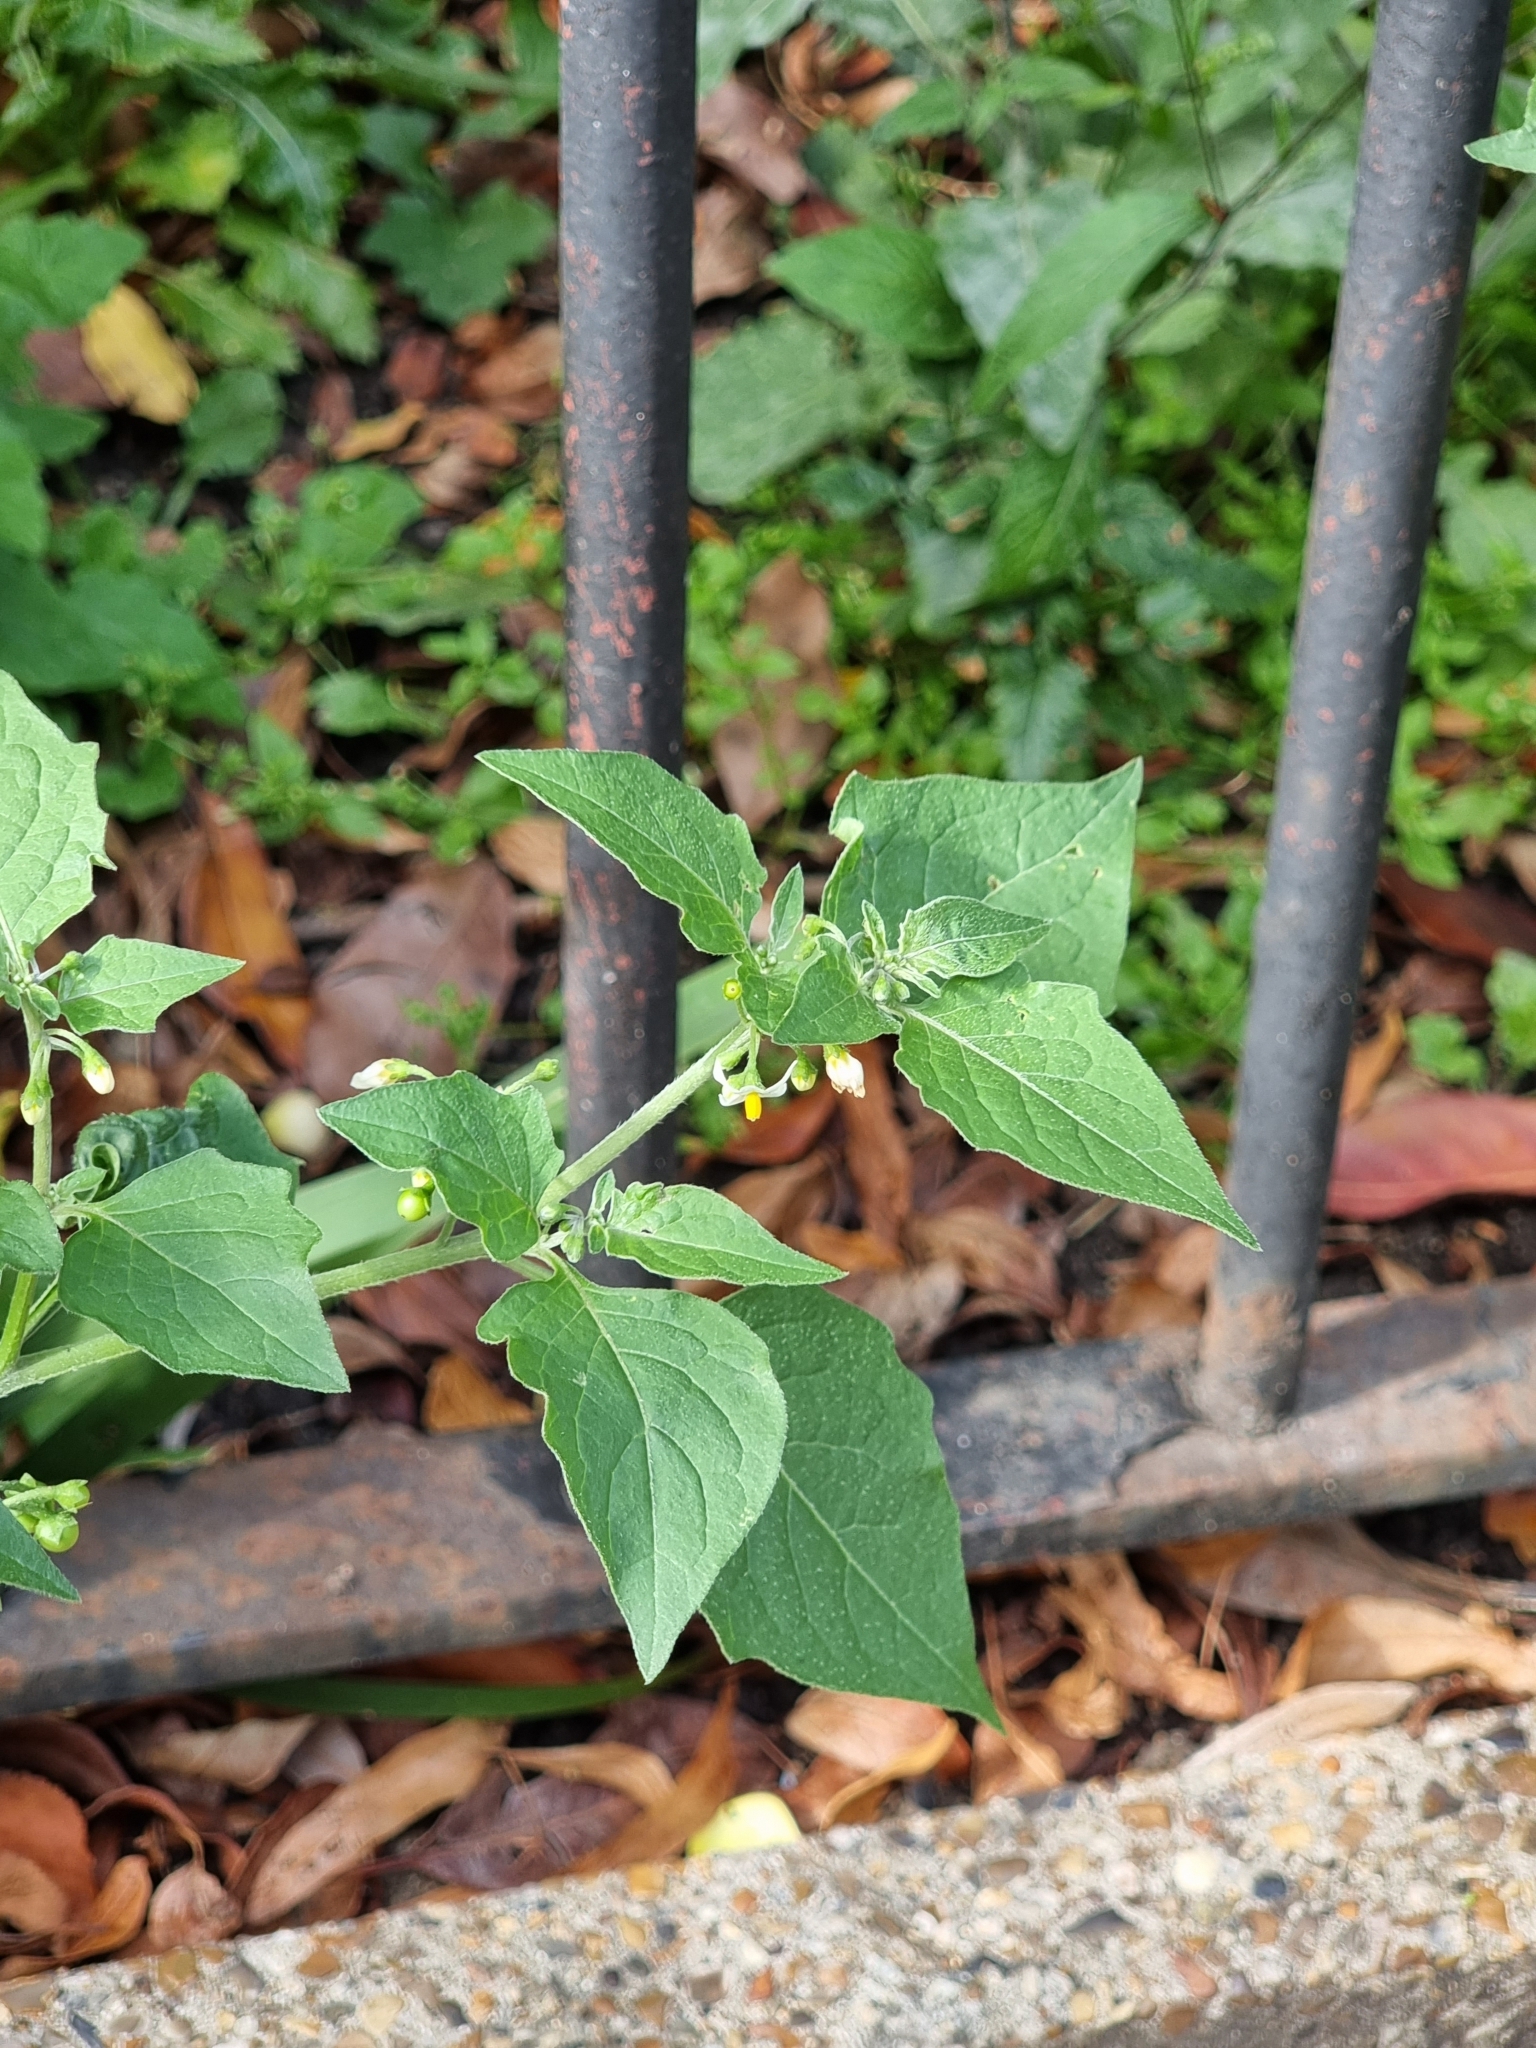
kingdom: Plantae
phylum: Tracheophyta
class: Magnoliopsida
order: Solanales
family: Solanaceae
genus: Solanum
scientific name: Solanum nigrum
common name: Black nightshade
